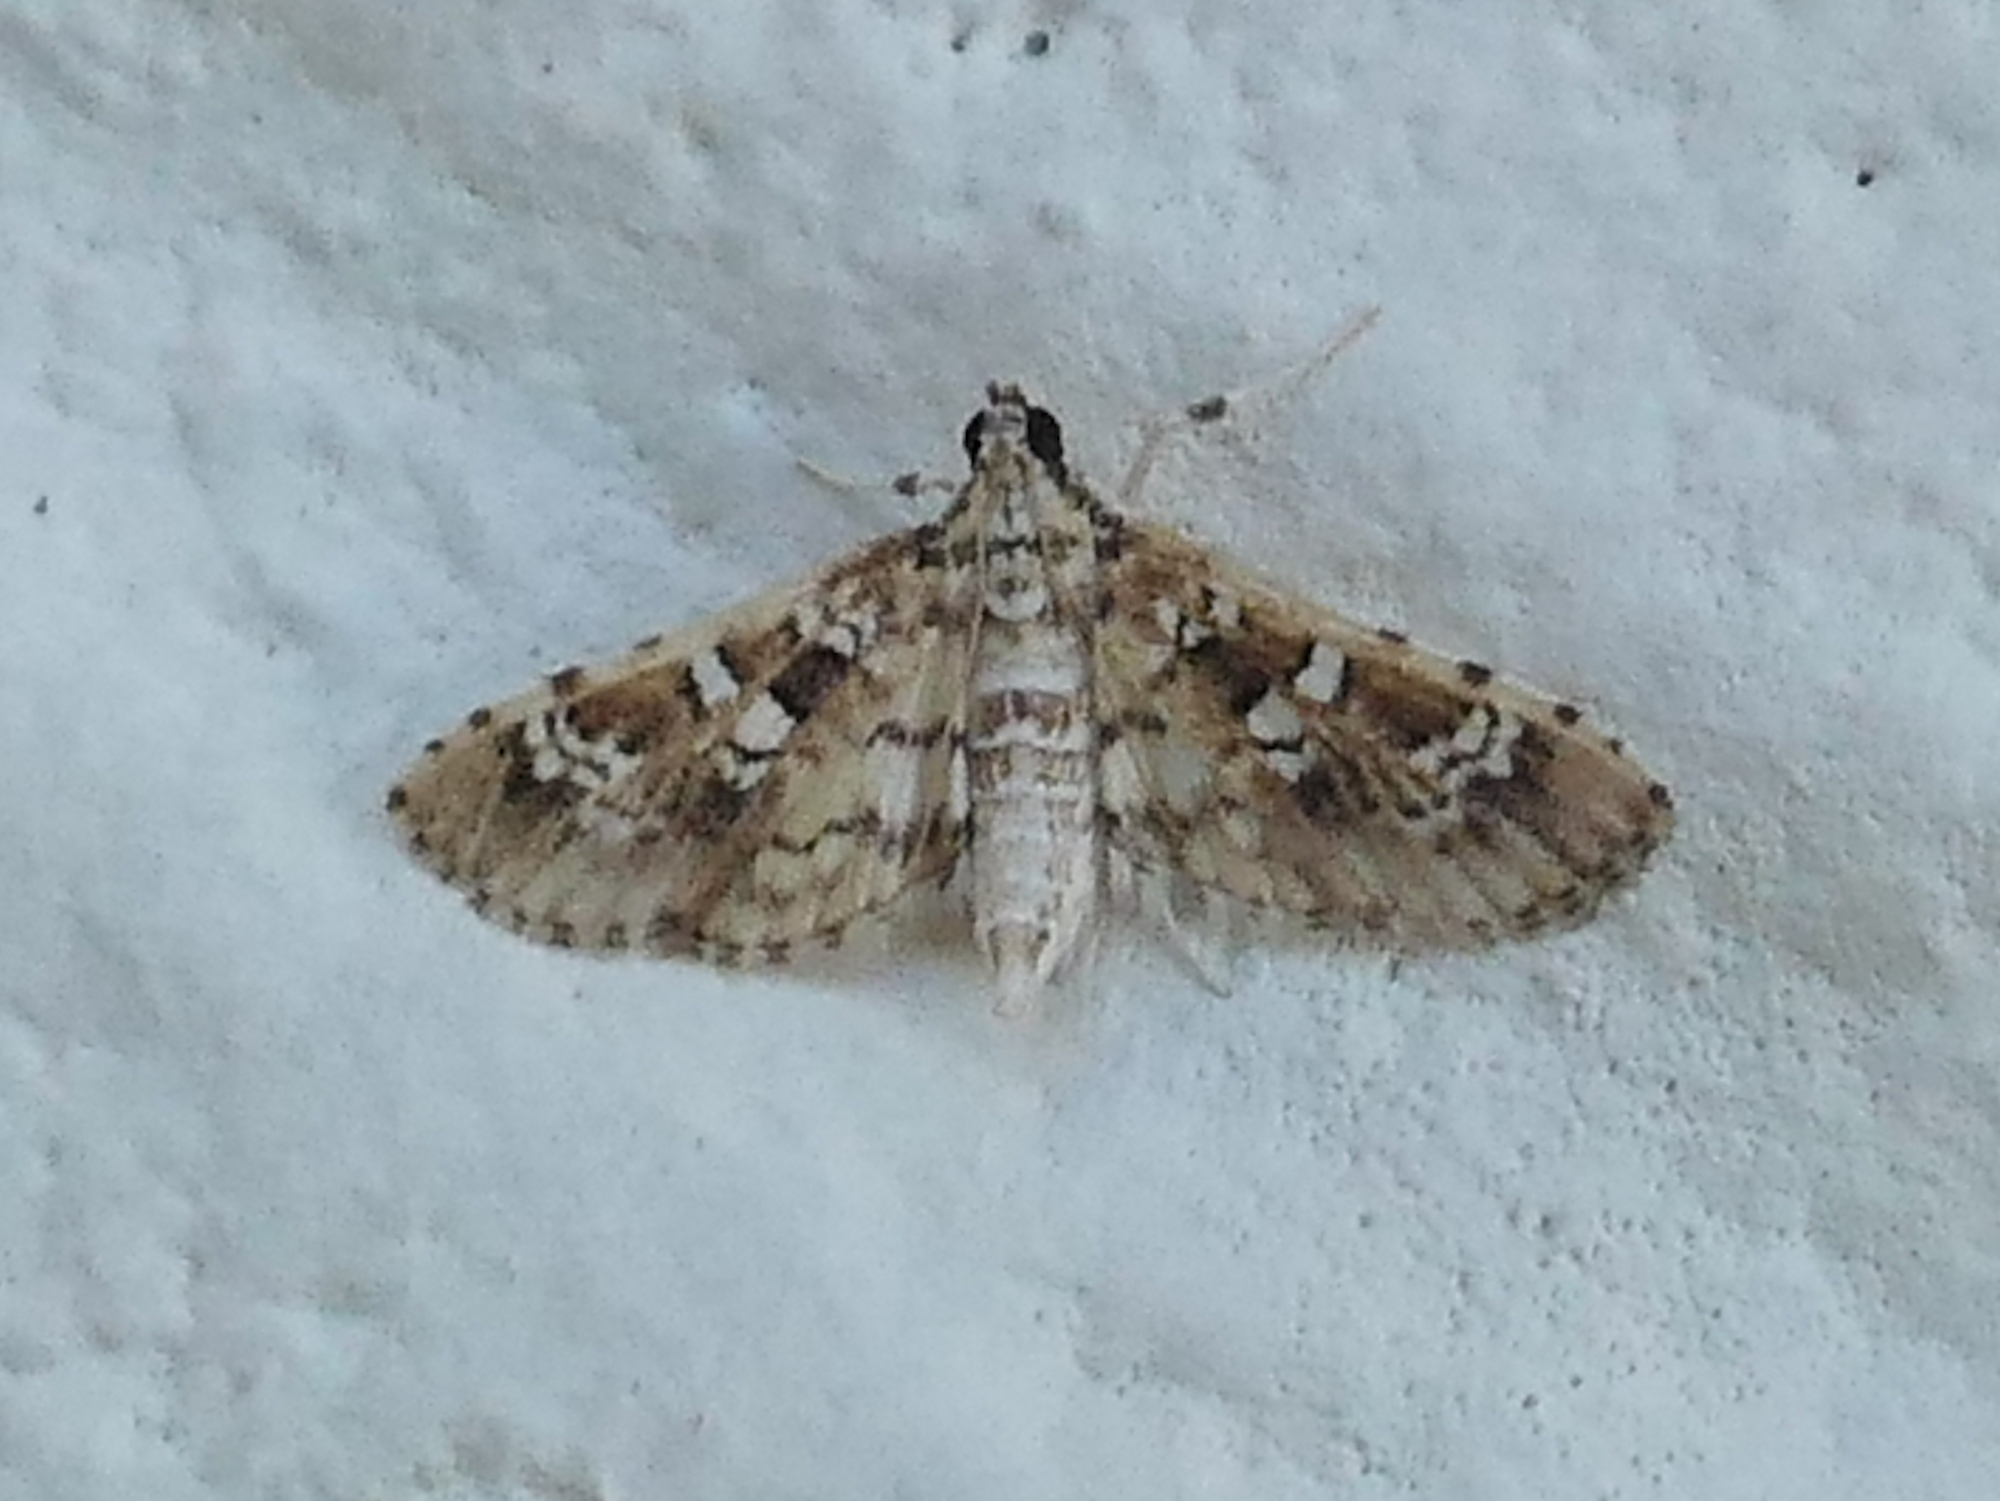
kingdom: Animalia
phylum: Arthropoda
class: Insecta
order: Lepidoptera
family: Crambidae
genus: Samea
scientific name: Samea multiplicalis
